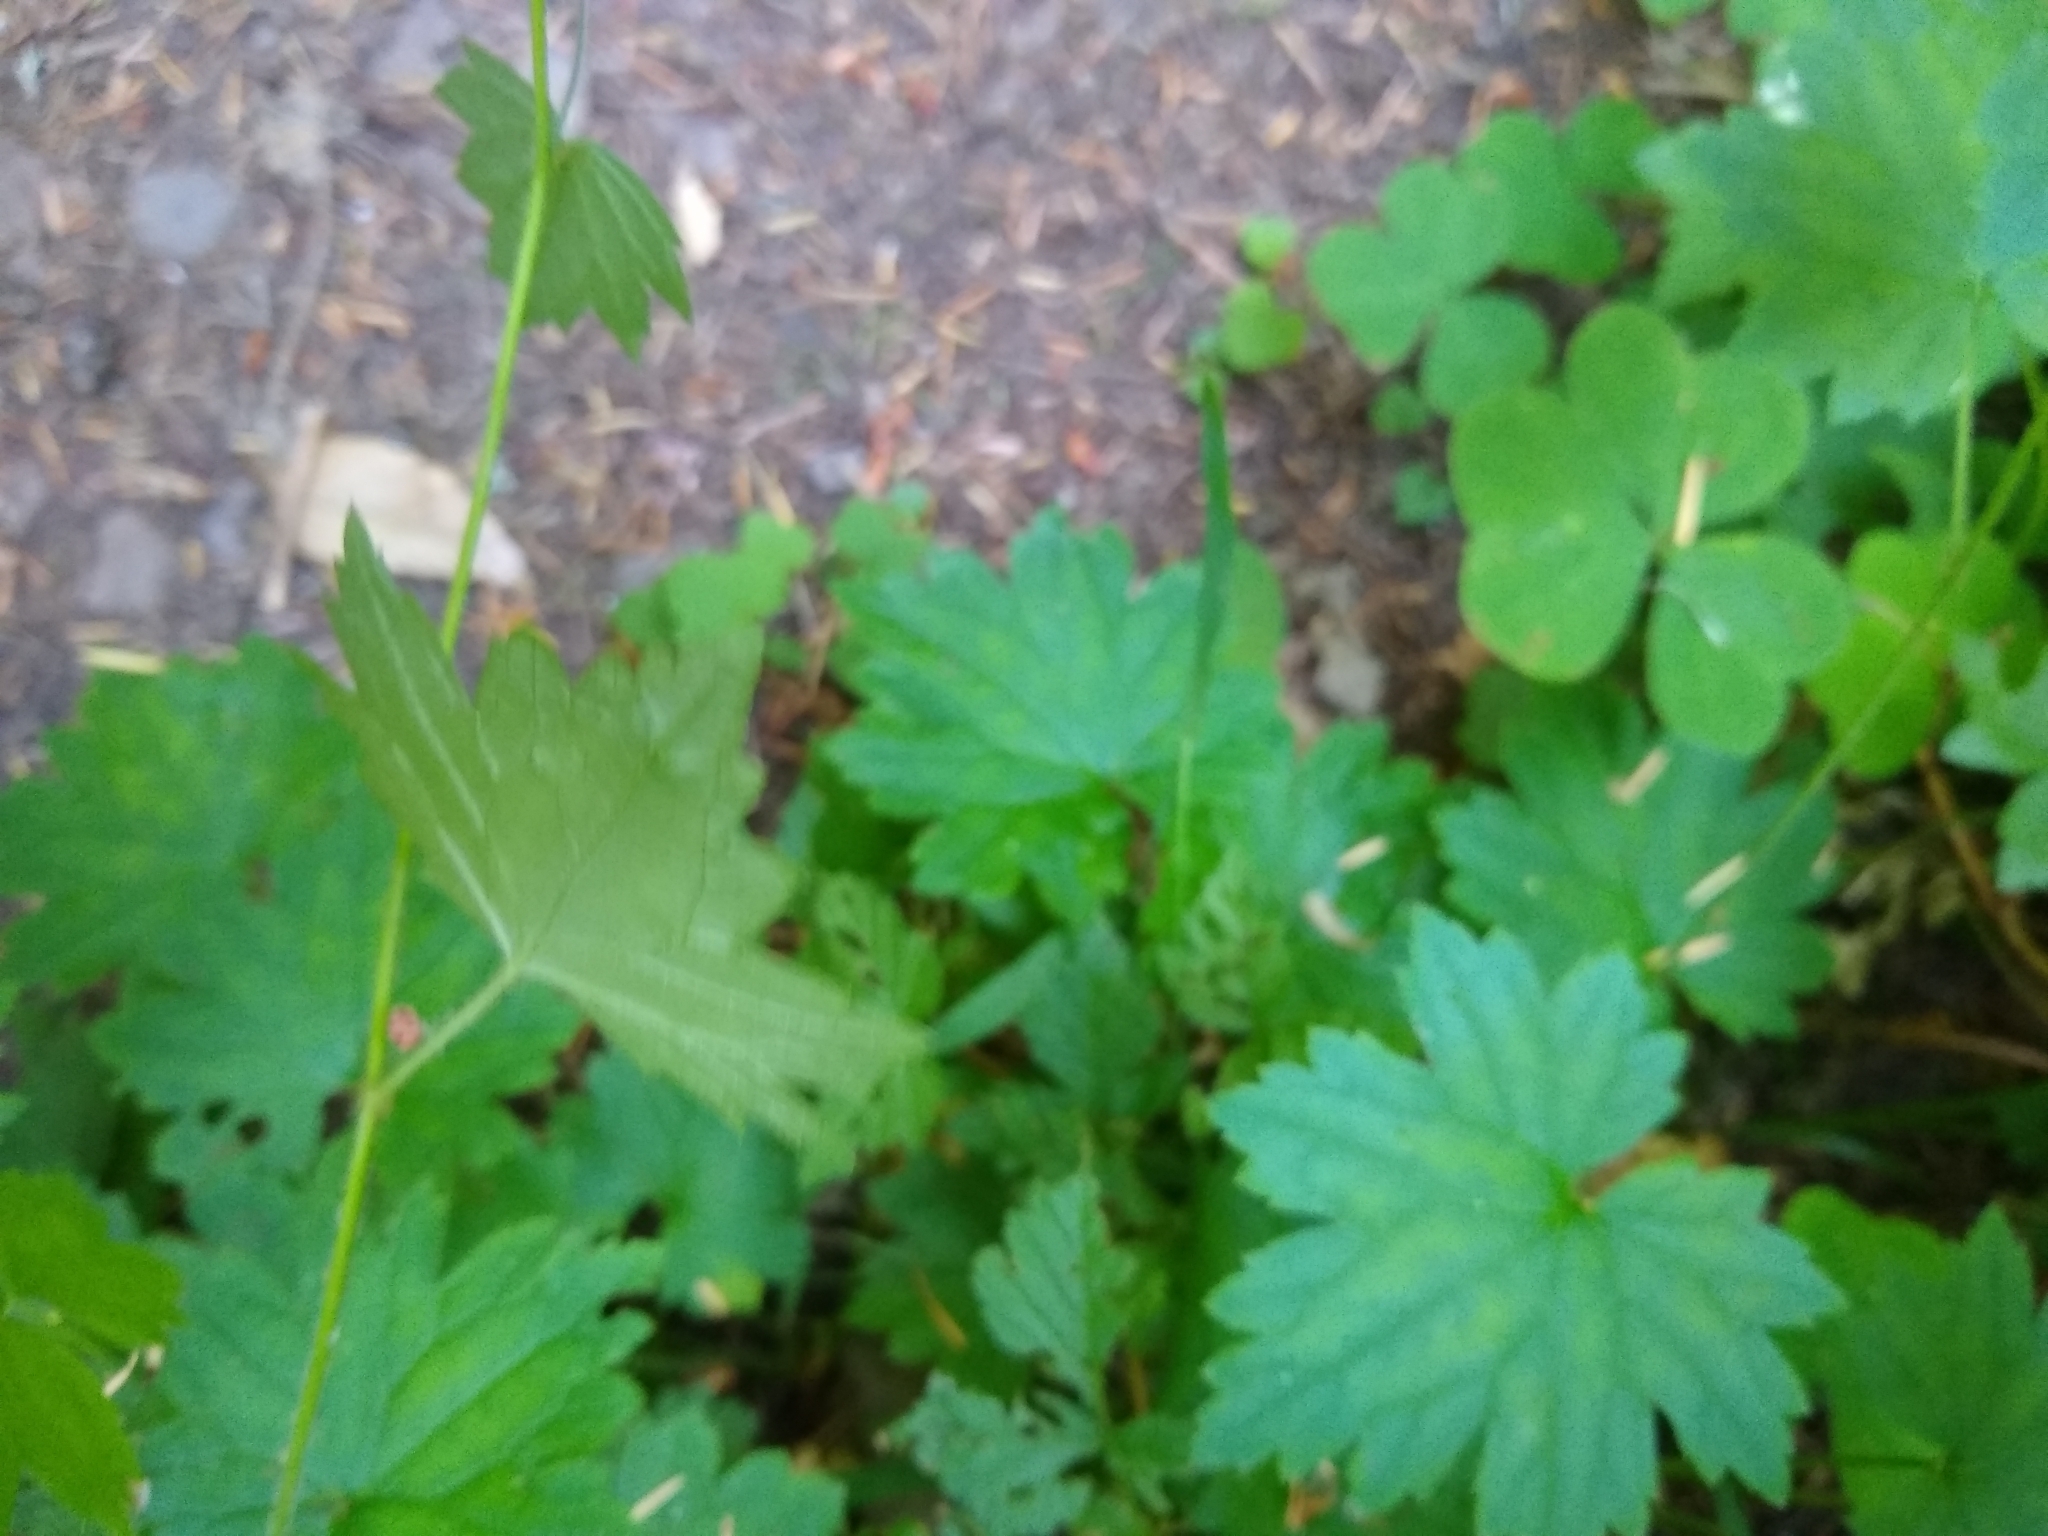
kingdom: Plantae
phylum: Tracheophyta
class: Magnoliopsida
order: Saxifragales
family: Saxifragaceae
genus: Boykinia
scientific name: Boykinia occidentalis
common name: Coast boykinia
